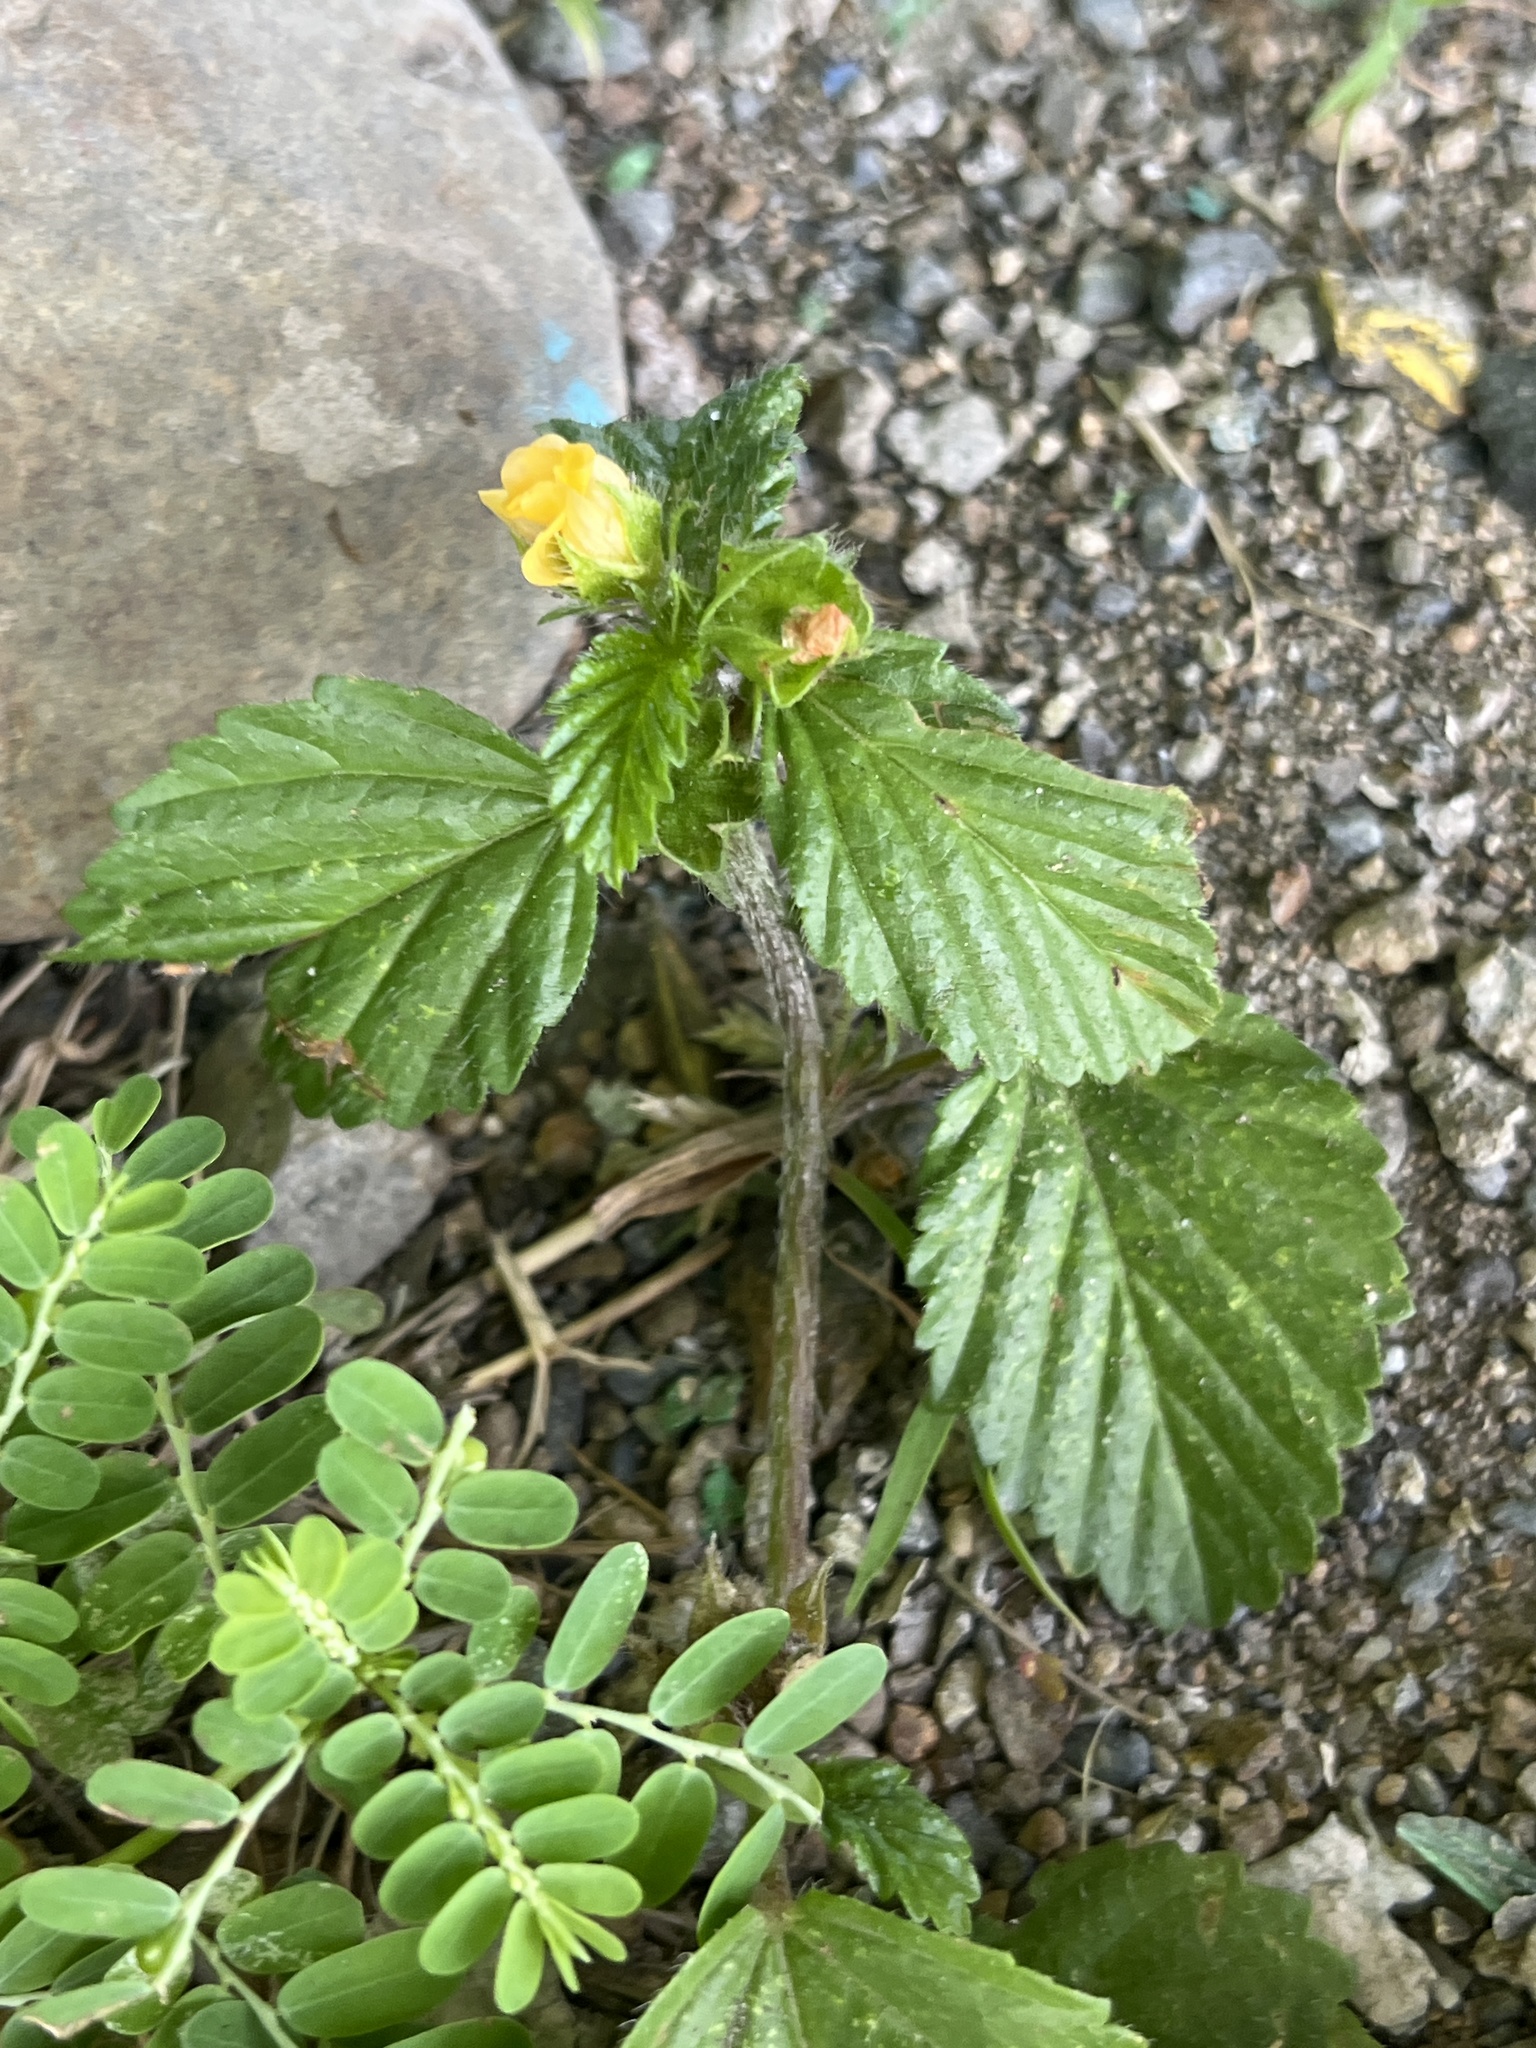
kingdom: Plantae
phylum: Tracheophyta
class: Magnoliopsida
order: Malvales
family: Malvaceae
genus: Malvastrum
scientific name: Malvastrum coromandelianum
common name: Threelobe false mallow
